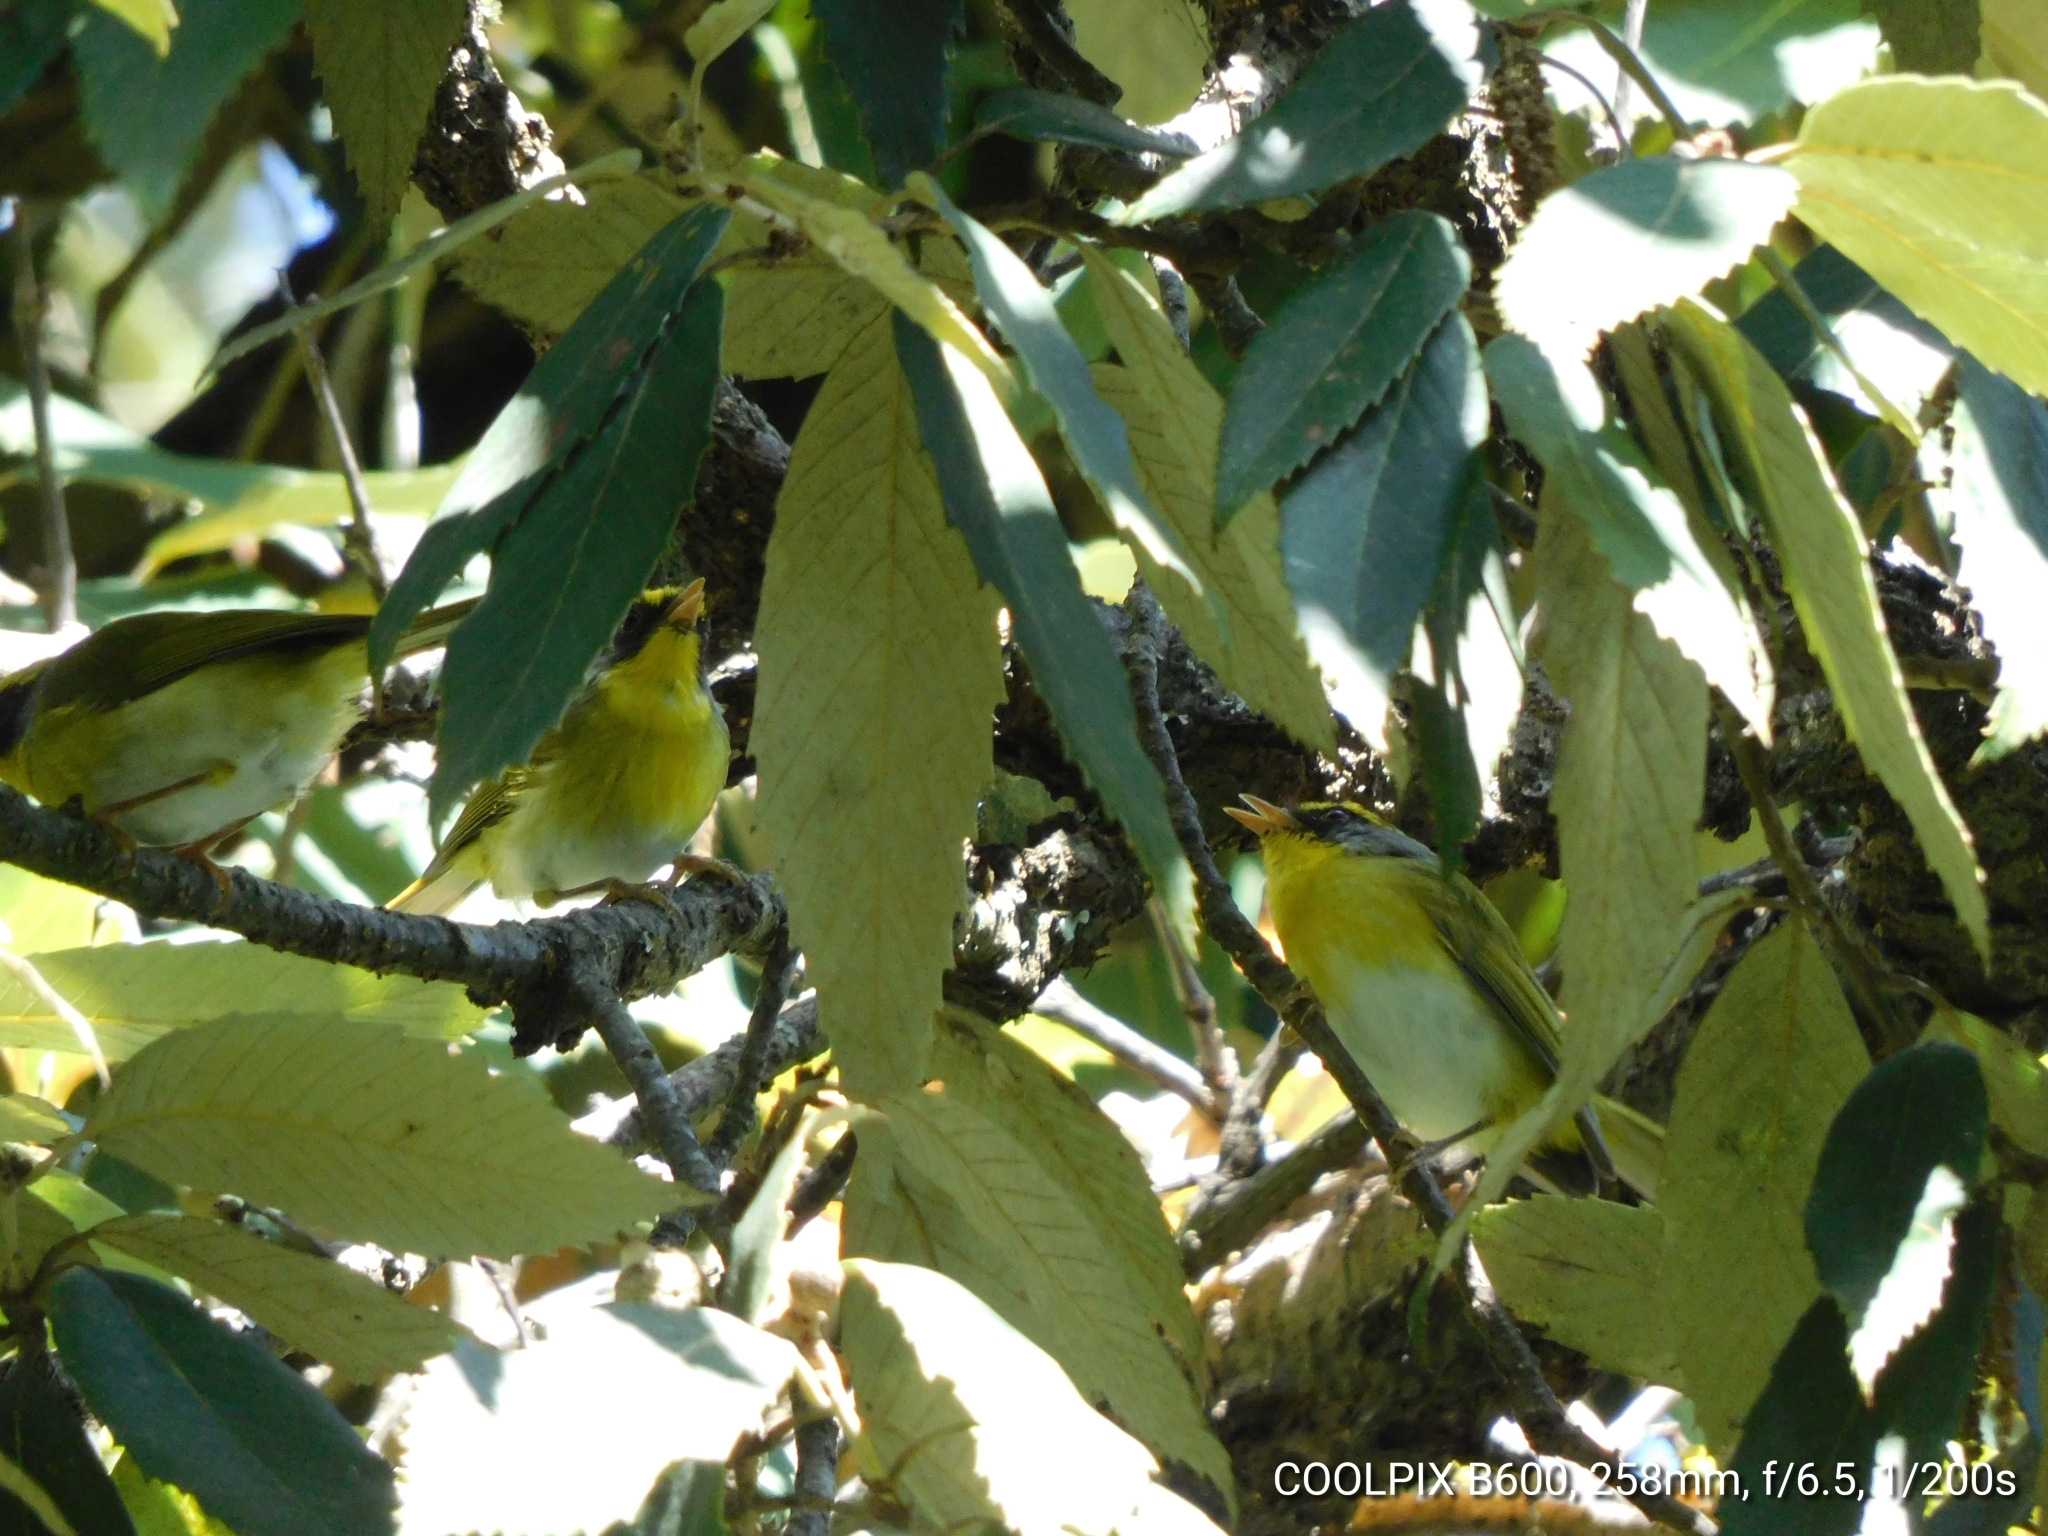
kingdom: Animalia
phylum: Chordata
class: Aves
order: Passeriformes
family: Cettiidae
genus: Abroscopus
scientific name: Abroscopus schisticeps
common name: Black-faced warbler
